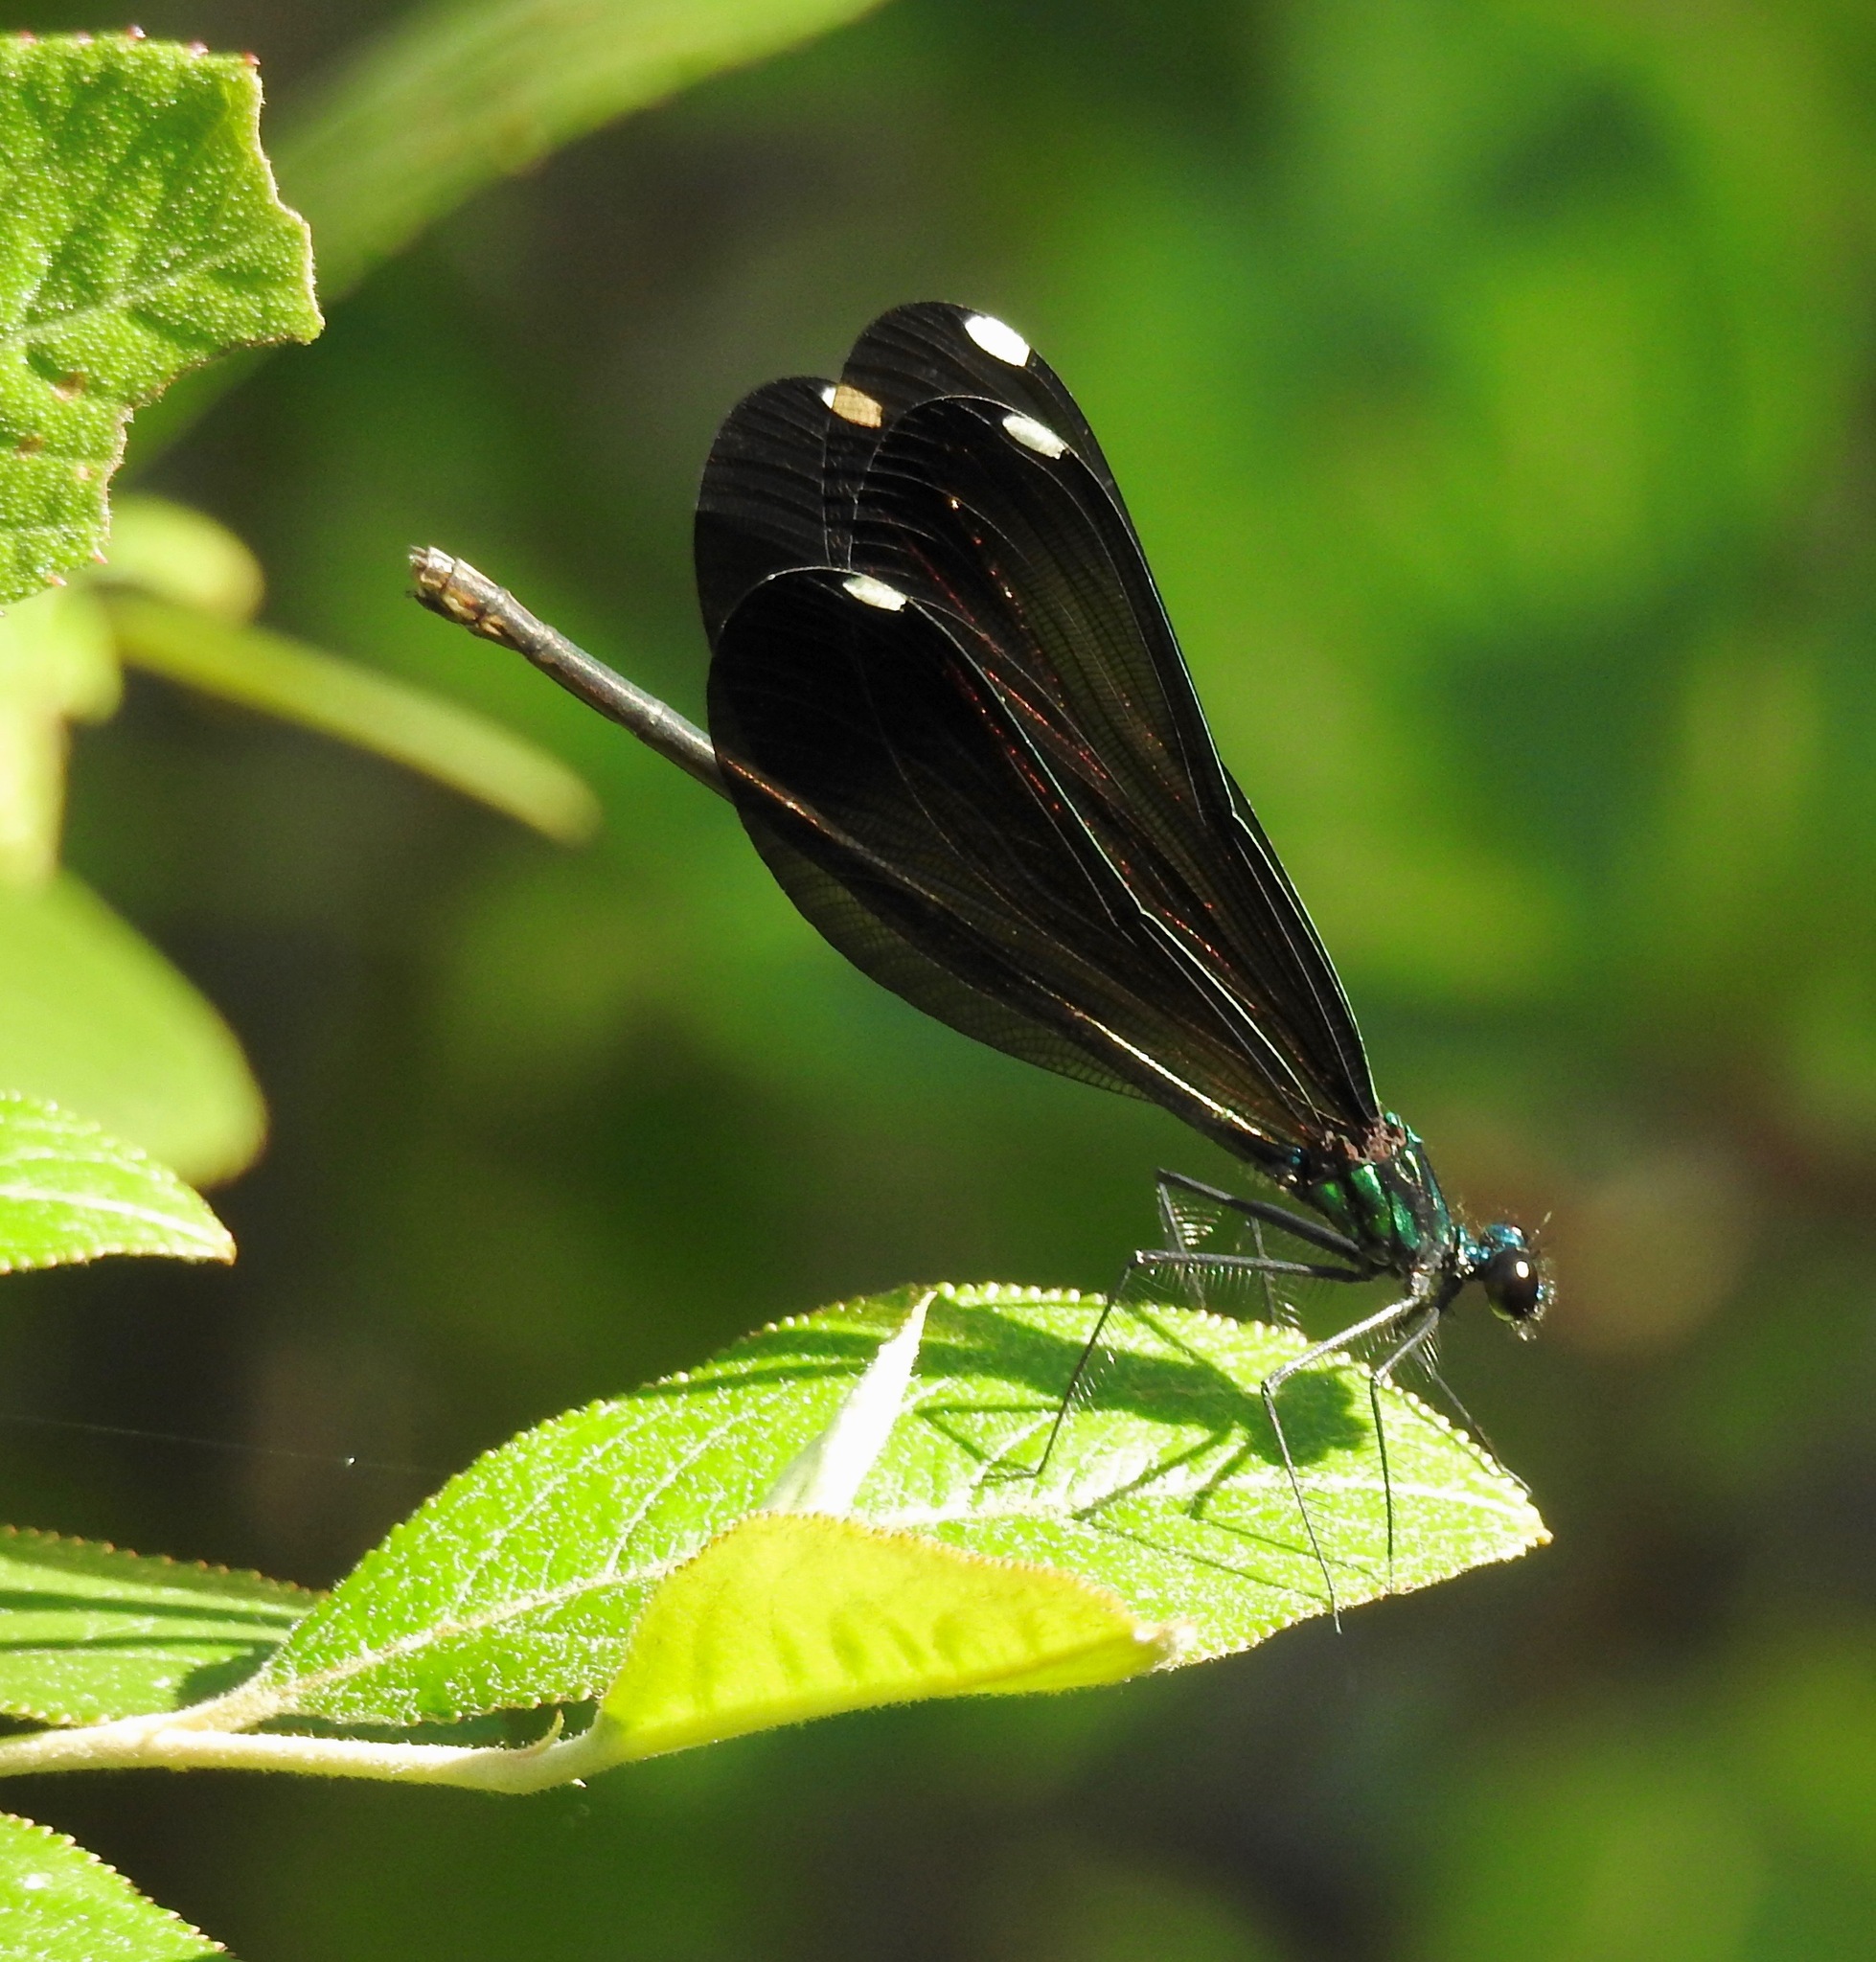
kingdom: Animalia
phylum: Arthropoda
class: Insecta
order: Odonata
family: Calopterygidae
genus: Calopteryx
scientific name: Calopteryx maculata
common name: Ebony jewelwing
